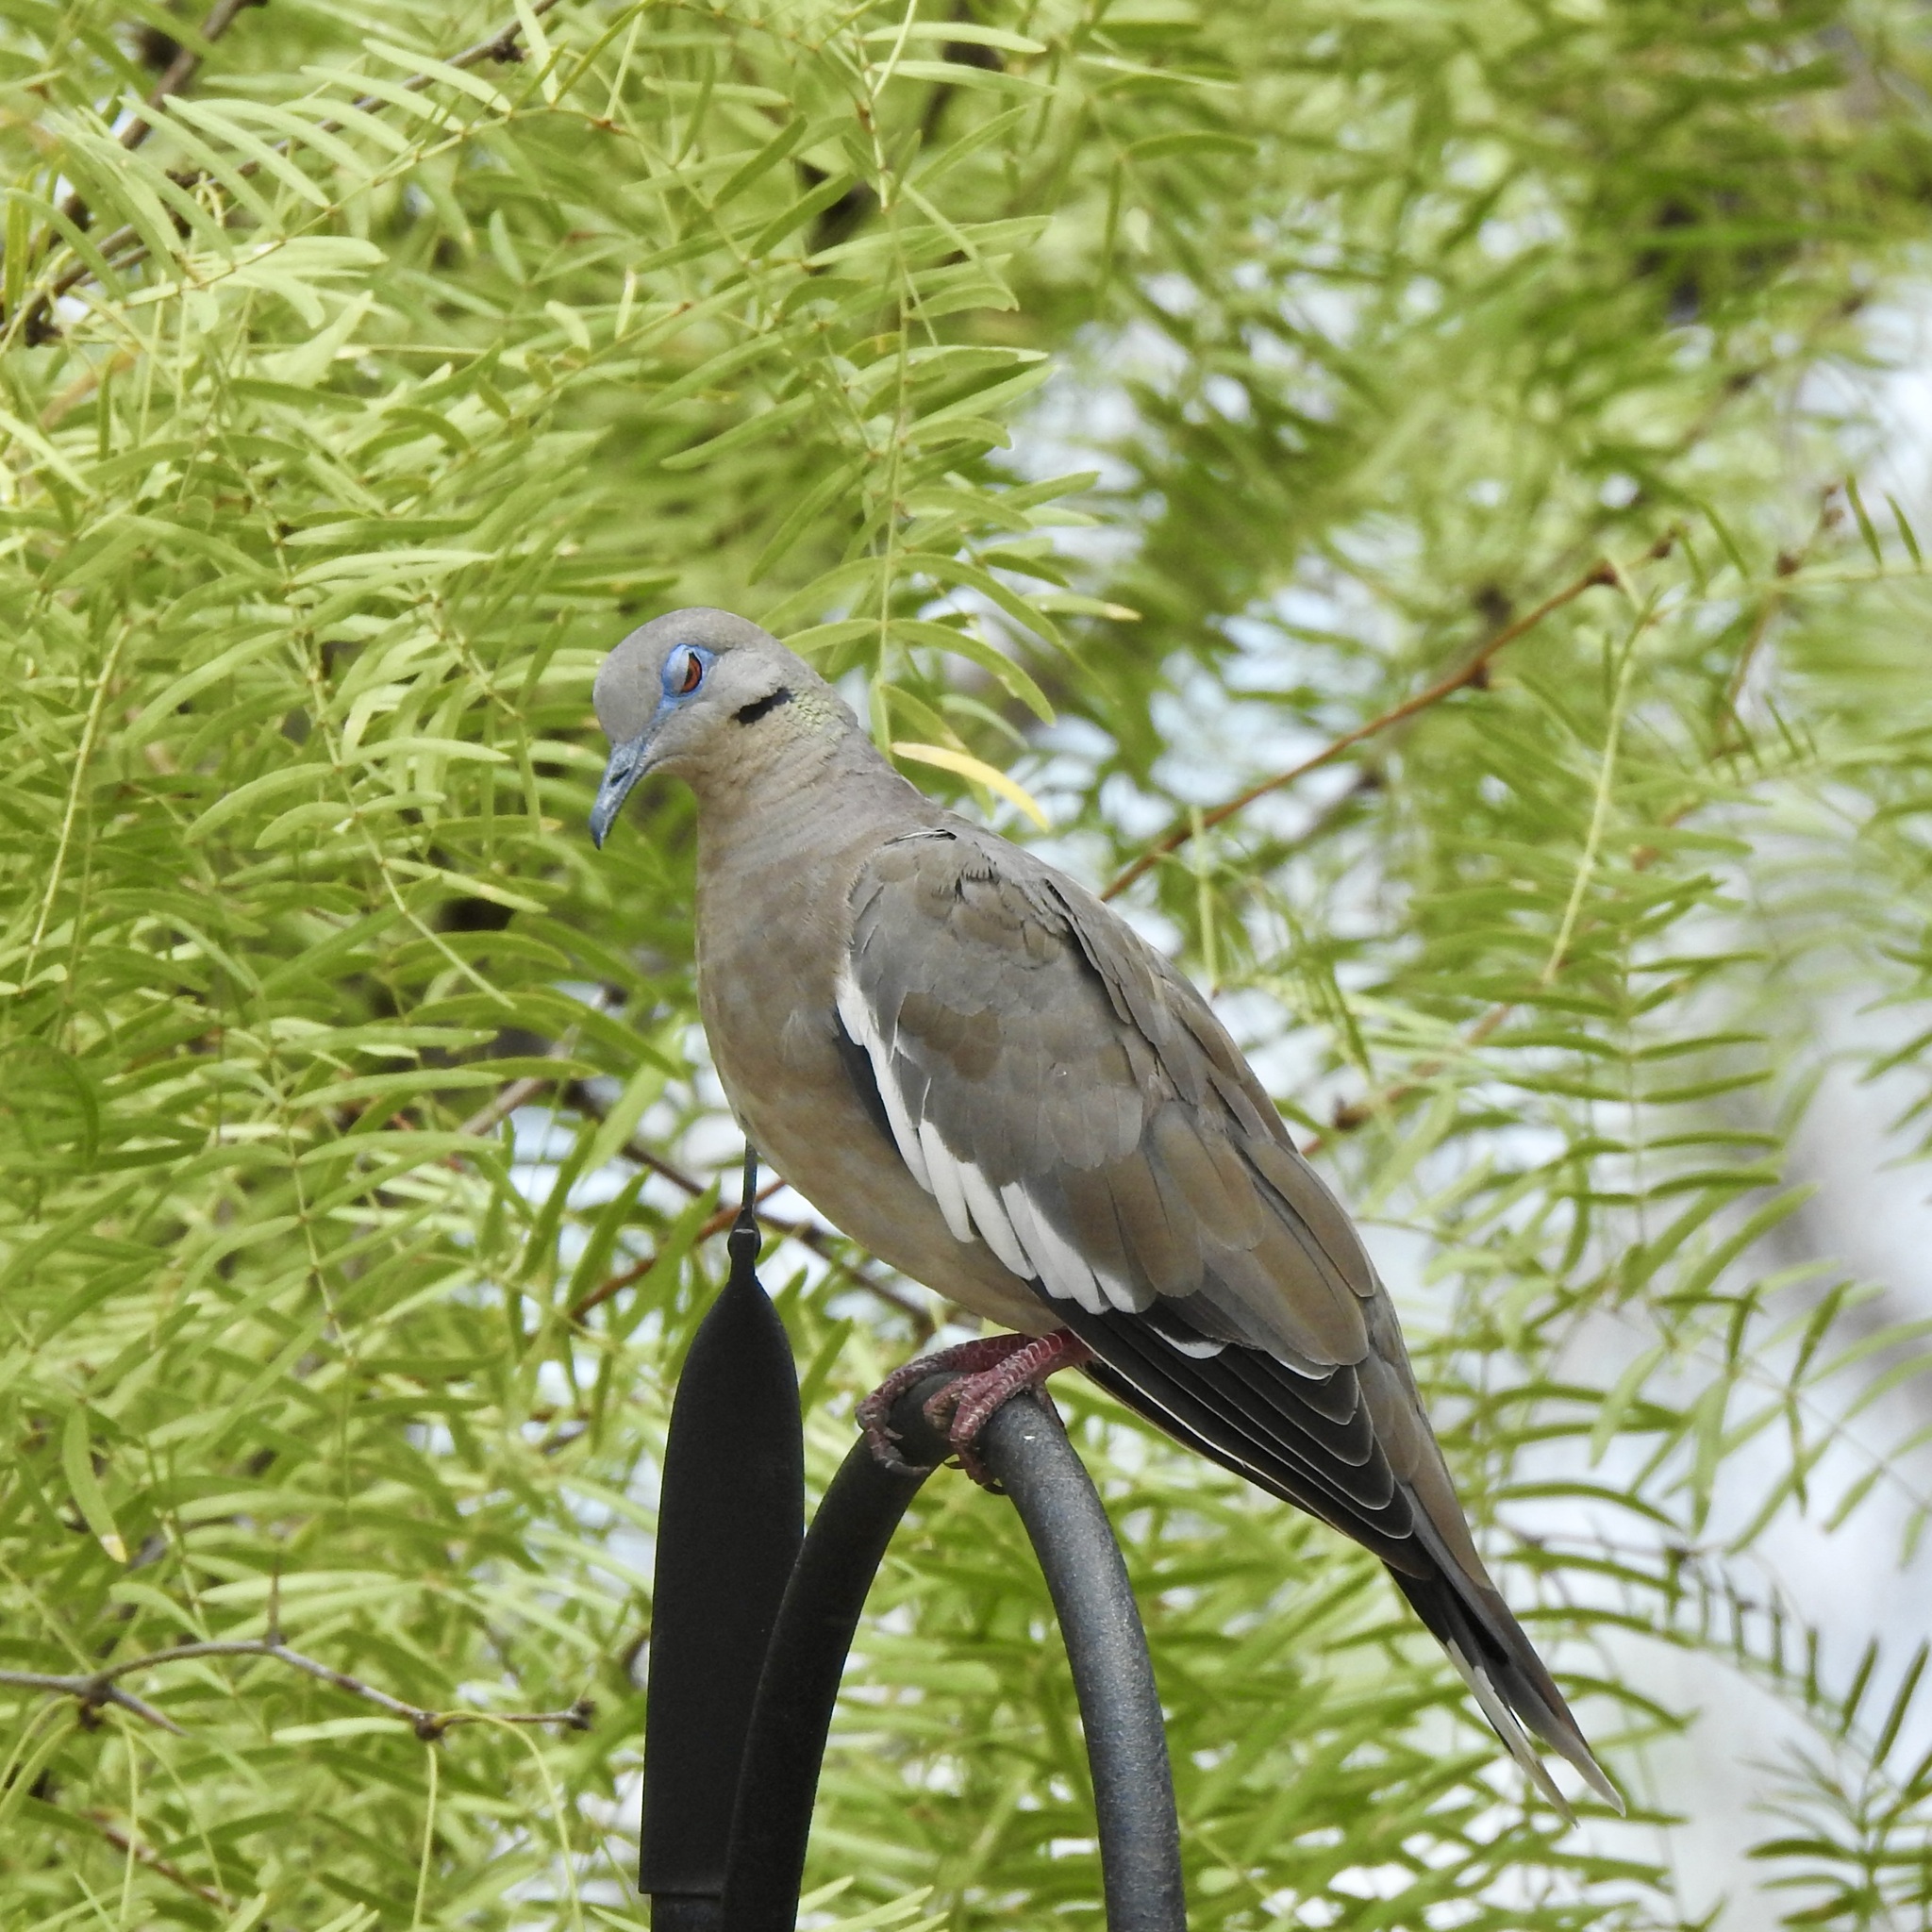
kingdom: Animalia
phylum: Chordata
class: Aves
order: Columbiformes
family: Columbidae
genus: Zenaida
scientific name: Zenaida asiatica
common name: White-winged dove
